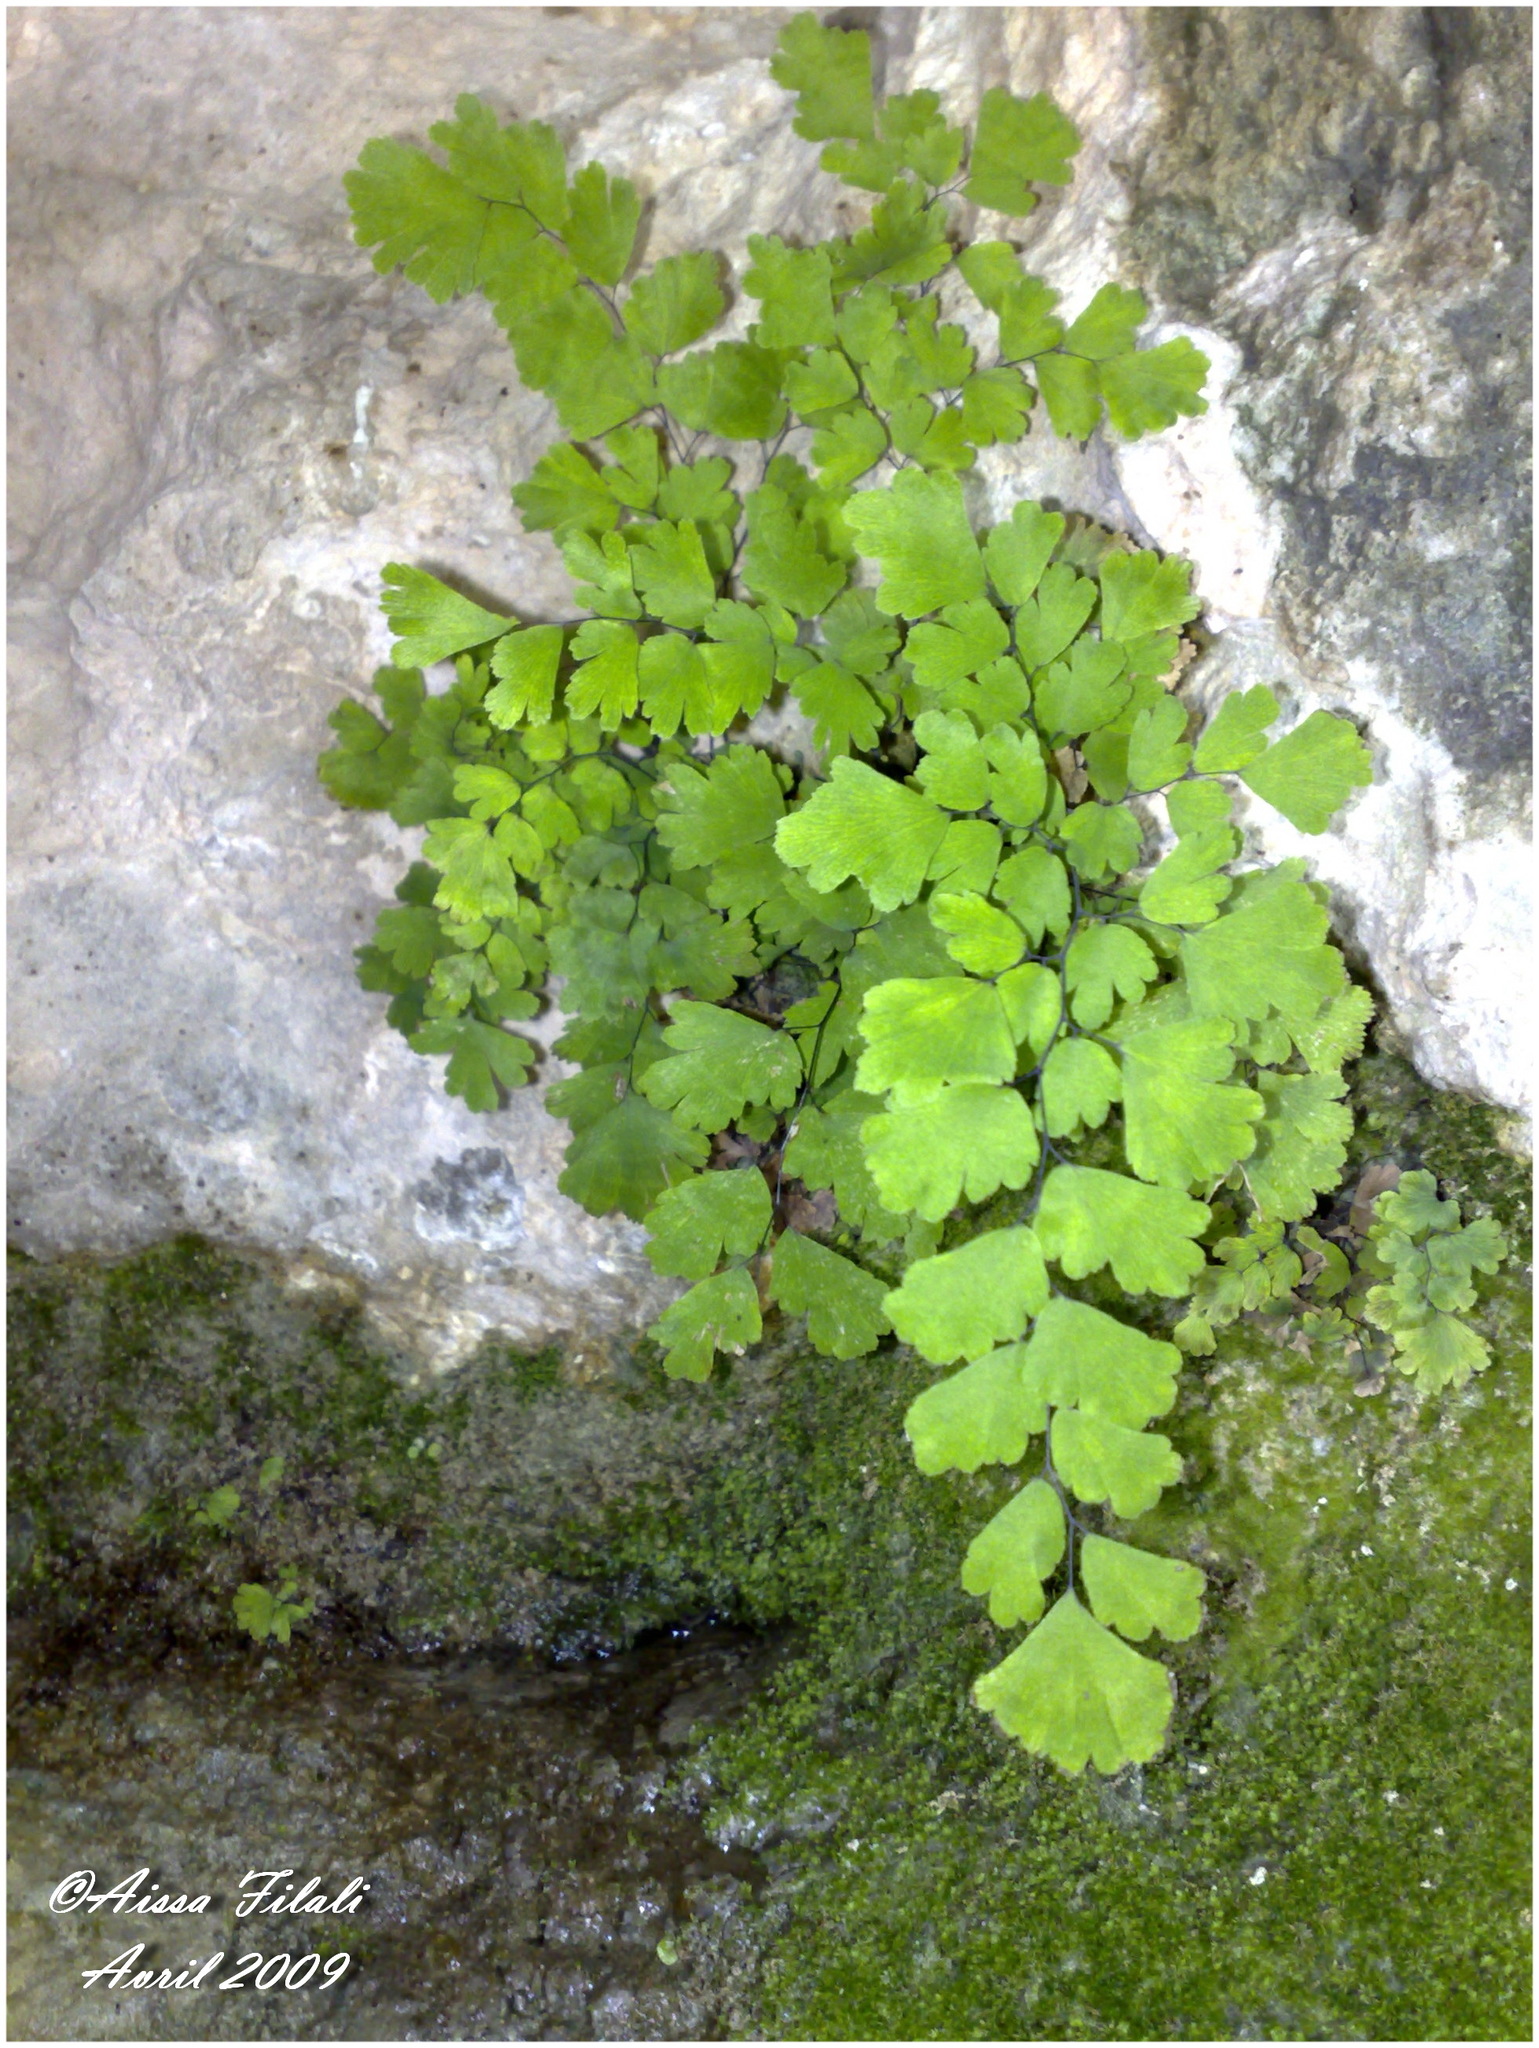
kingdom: Plantae
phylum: Tracheophyta
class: Polypodiopsida
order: Polypodiales
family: Pteridaceae
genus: Adiantum
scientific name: Adiantum capillus-veneris
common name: Maidenhair fern
